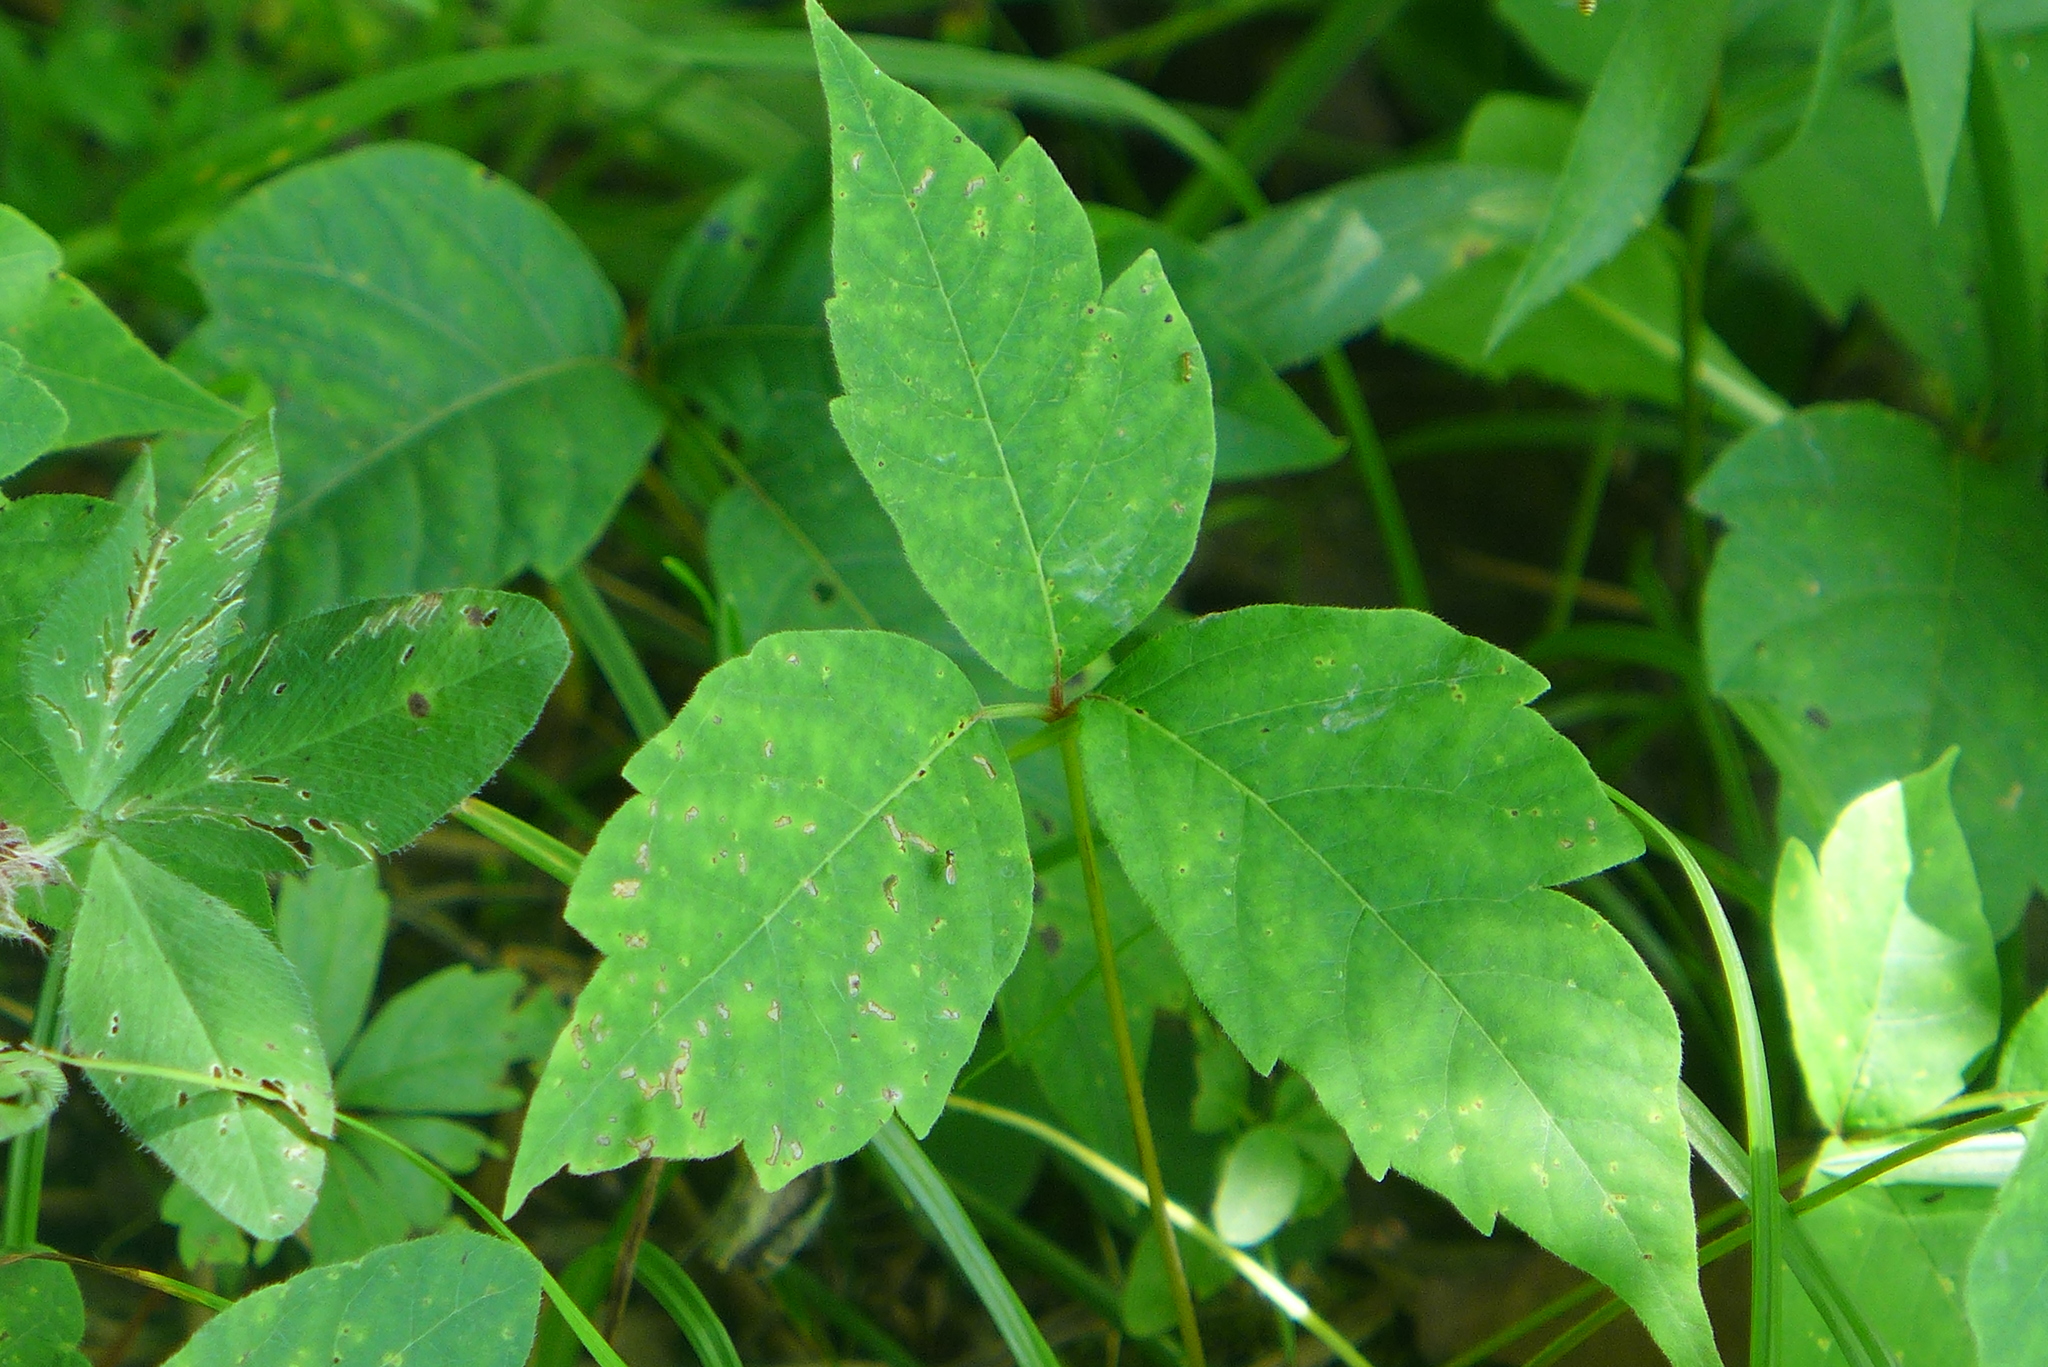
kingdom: Plantae
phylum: Tracheophyta
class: Magnoliopsida
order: Sapindales
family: Anacardiaceae
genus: Toxicodendron
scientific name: Toxicodendron radicans
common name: Poison ivy
